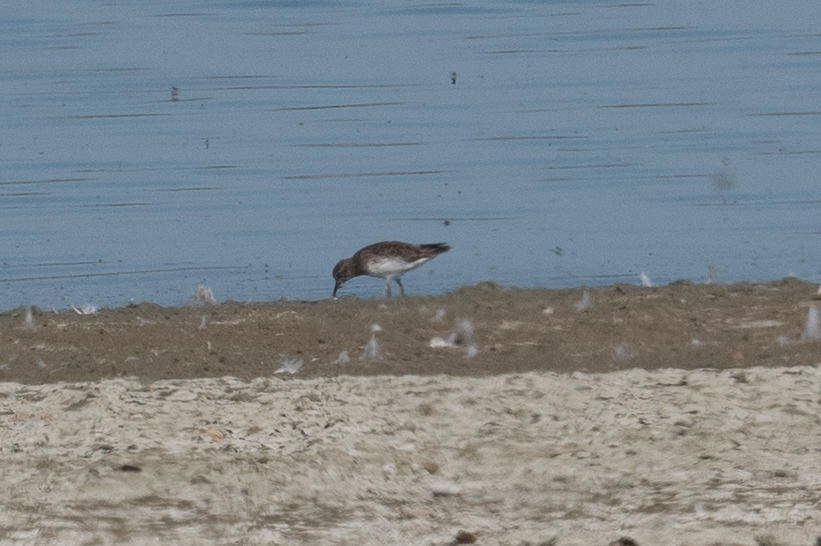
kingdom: Animalia
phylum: Chordata
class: Aves
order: Charadriiformes
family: Scolopacidae
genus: Calidris
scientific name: Calidris minutilla
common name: Least sandpiper
